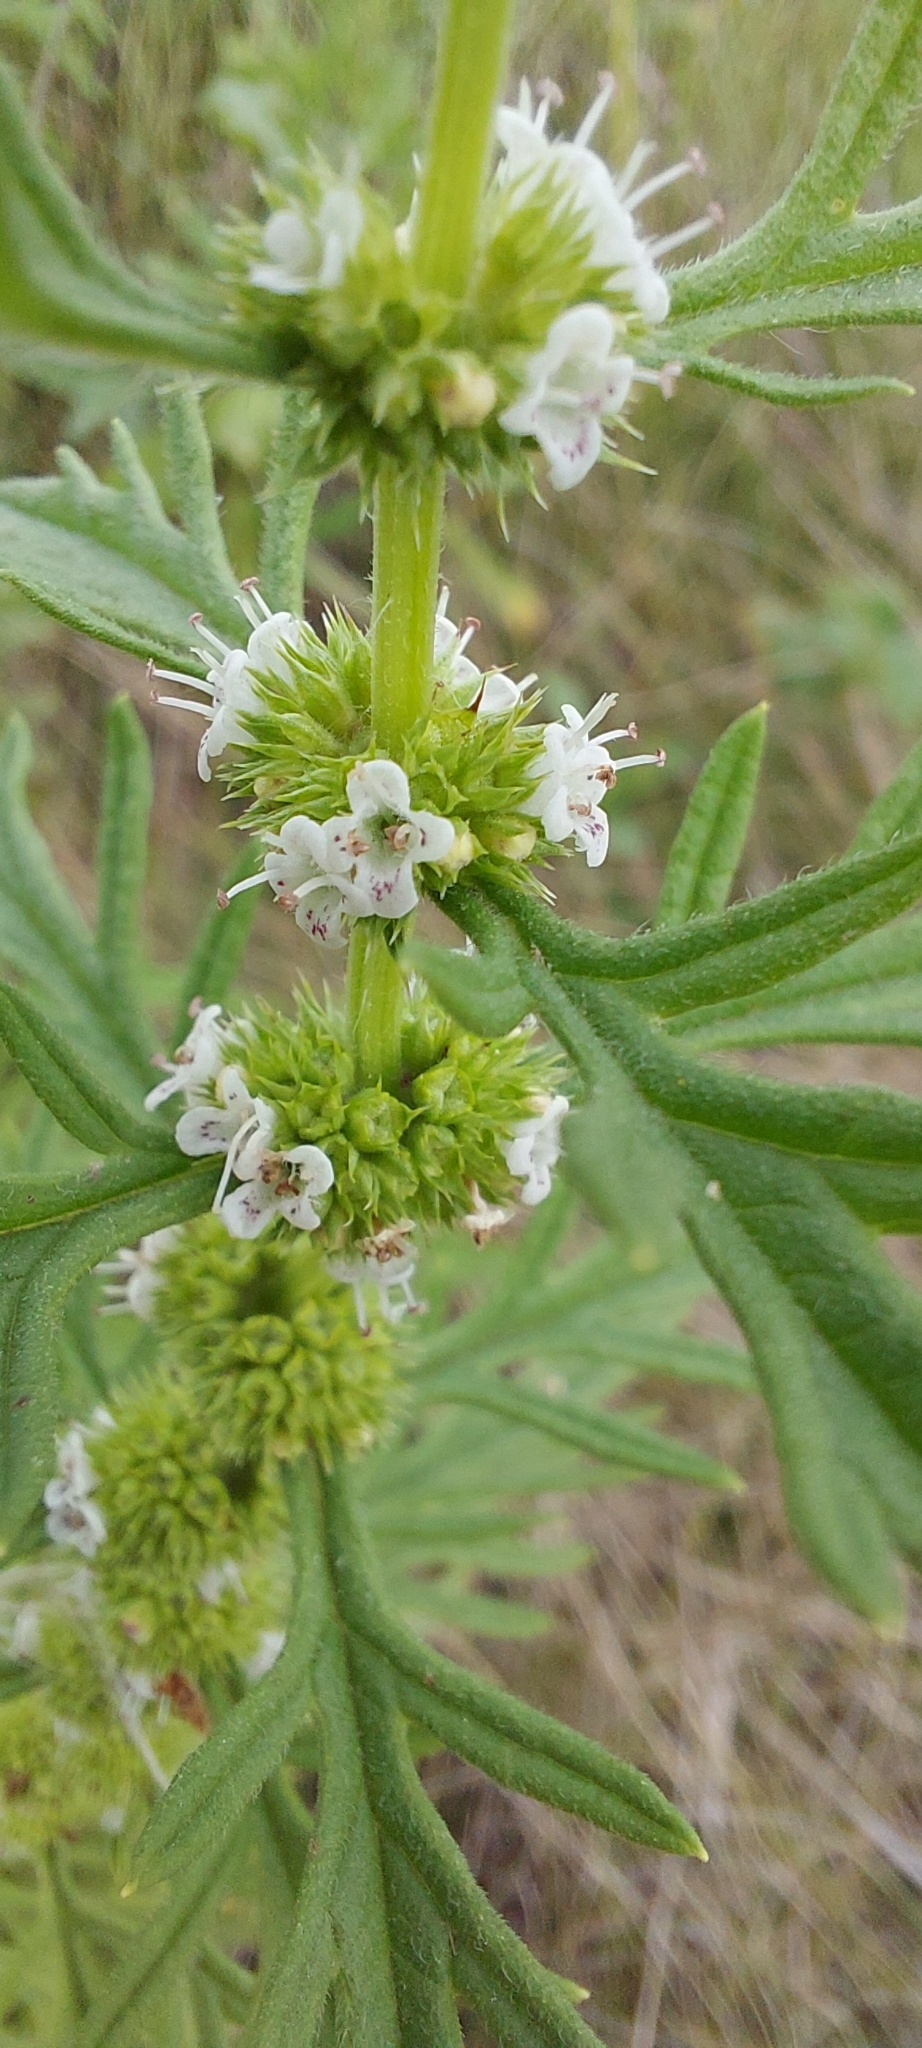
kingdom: Plantae
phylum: Tracheophyta
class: Magnoliopsida
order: Lamiales
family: Lamiaceae
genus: Lycopus
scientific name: Lycopus exaltatus
